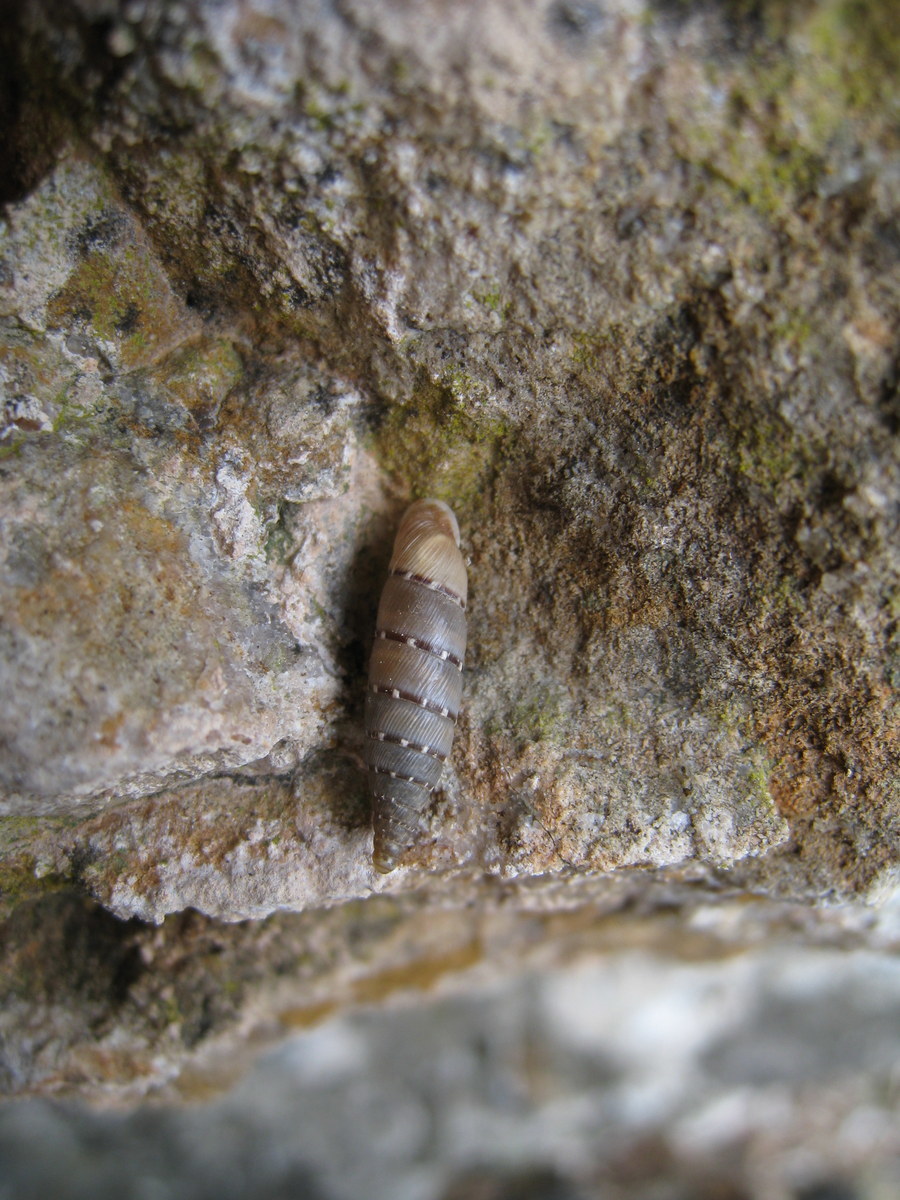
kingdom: Animalia
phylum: Mollusca
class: Gastropoda
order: Stylommatophora
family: Clausiliidae
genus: Papillifera
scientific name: Papillifera papillaris
